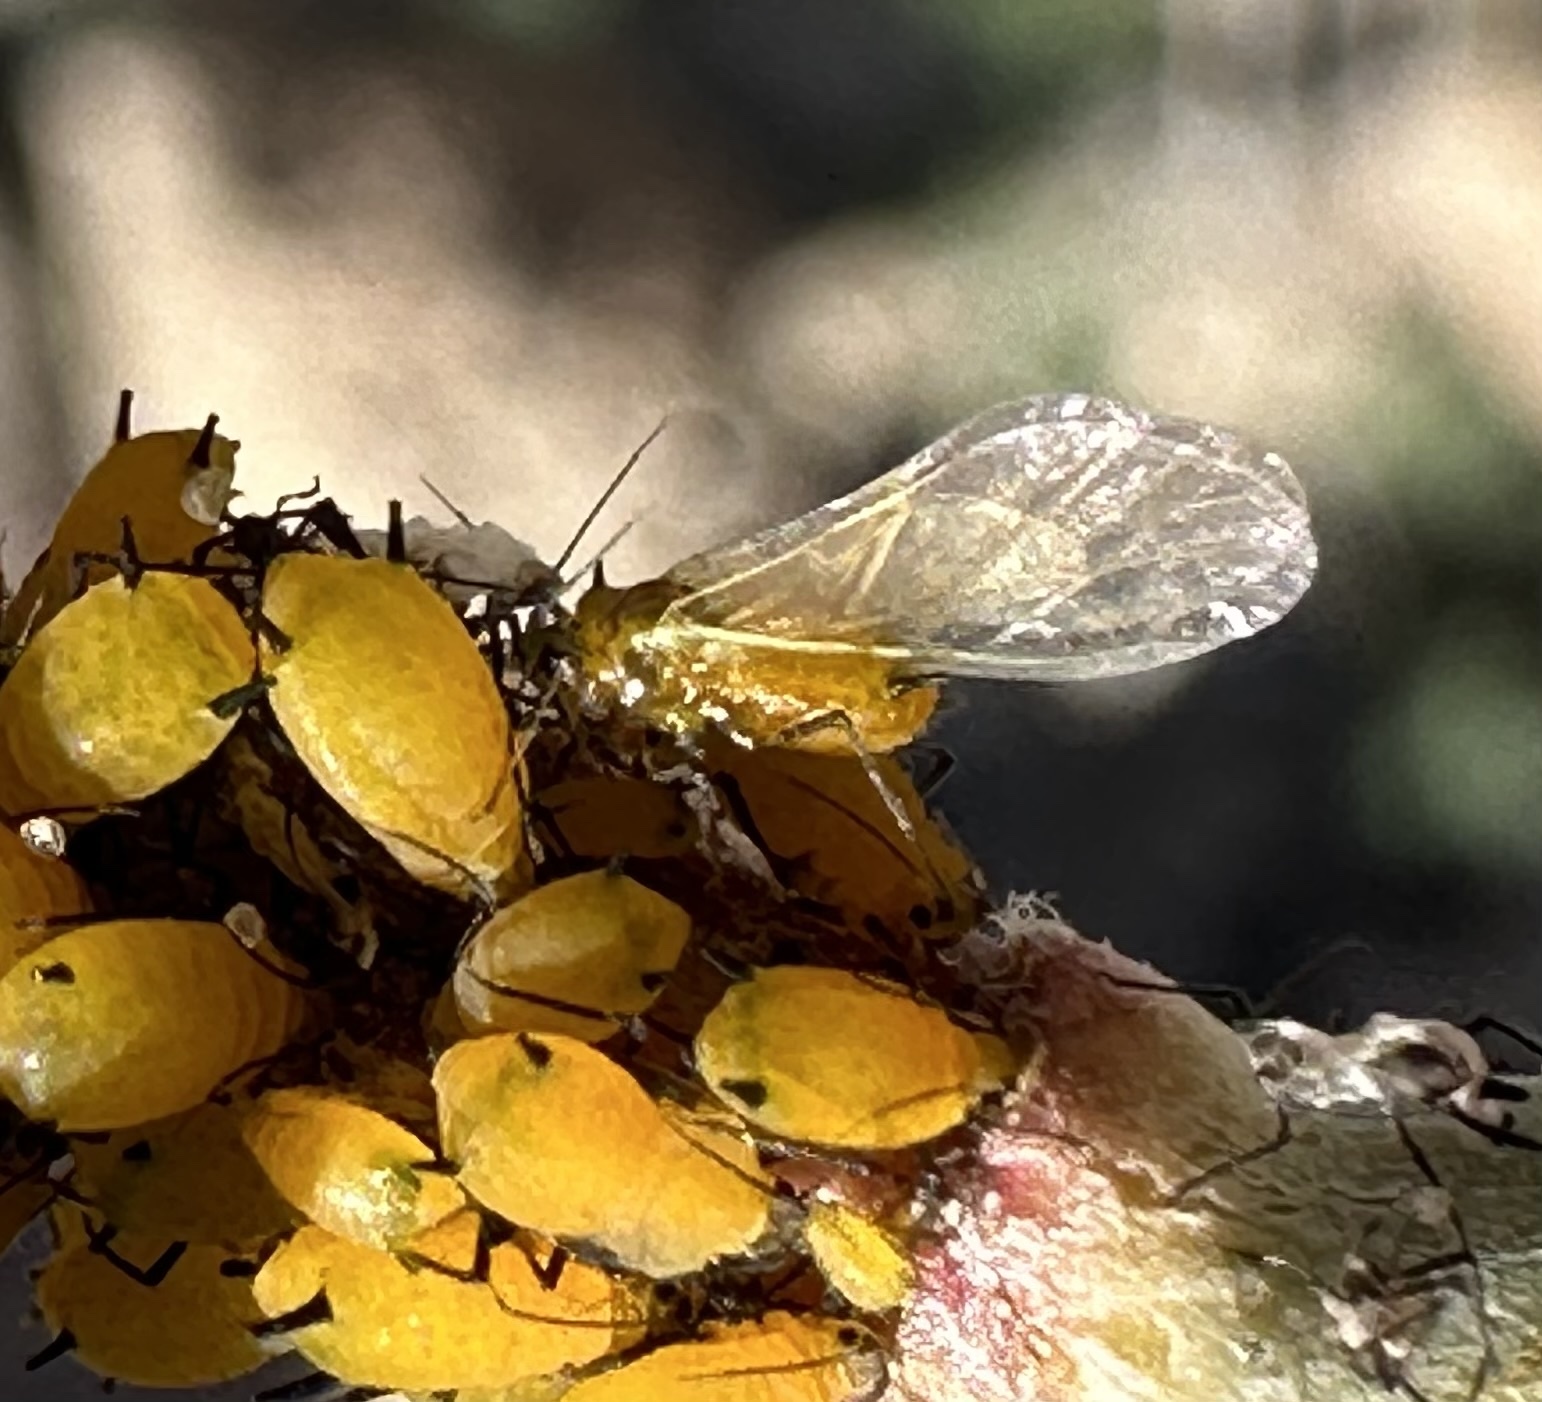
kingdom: Animalia
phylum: Arthropoda
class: Insecta
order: Hemiptera
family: Aphididae
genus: Aphis
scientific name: Aphis nerii
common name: Oleander aphid
